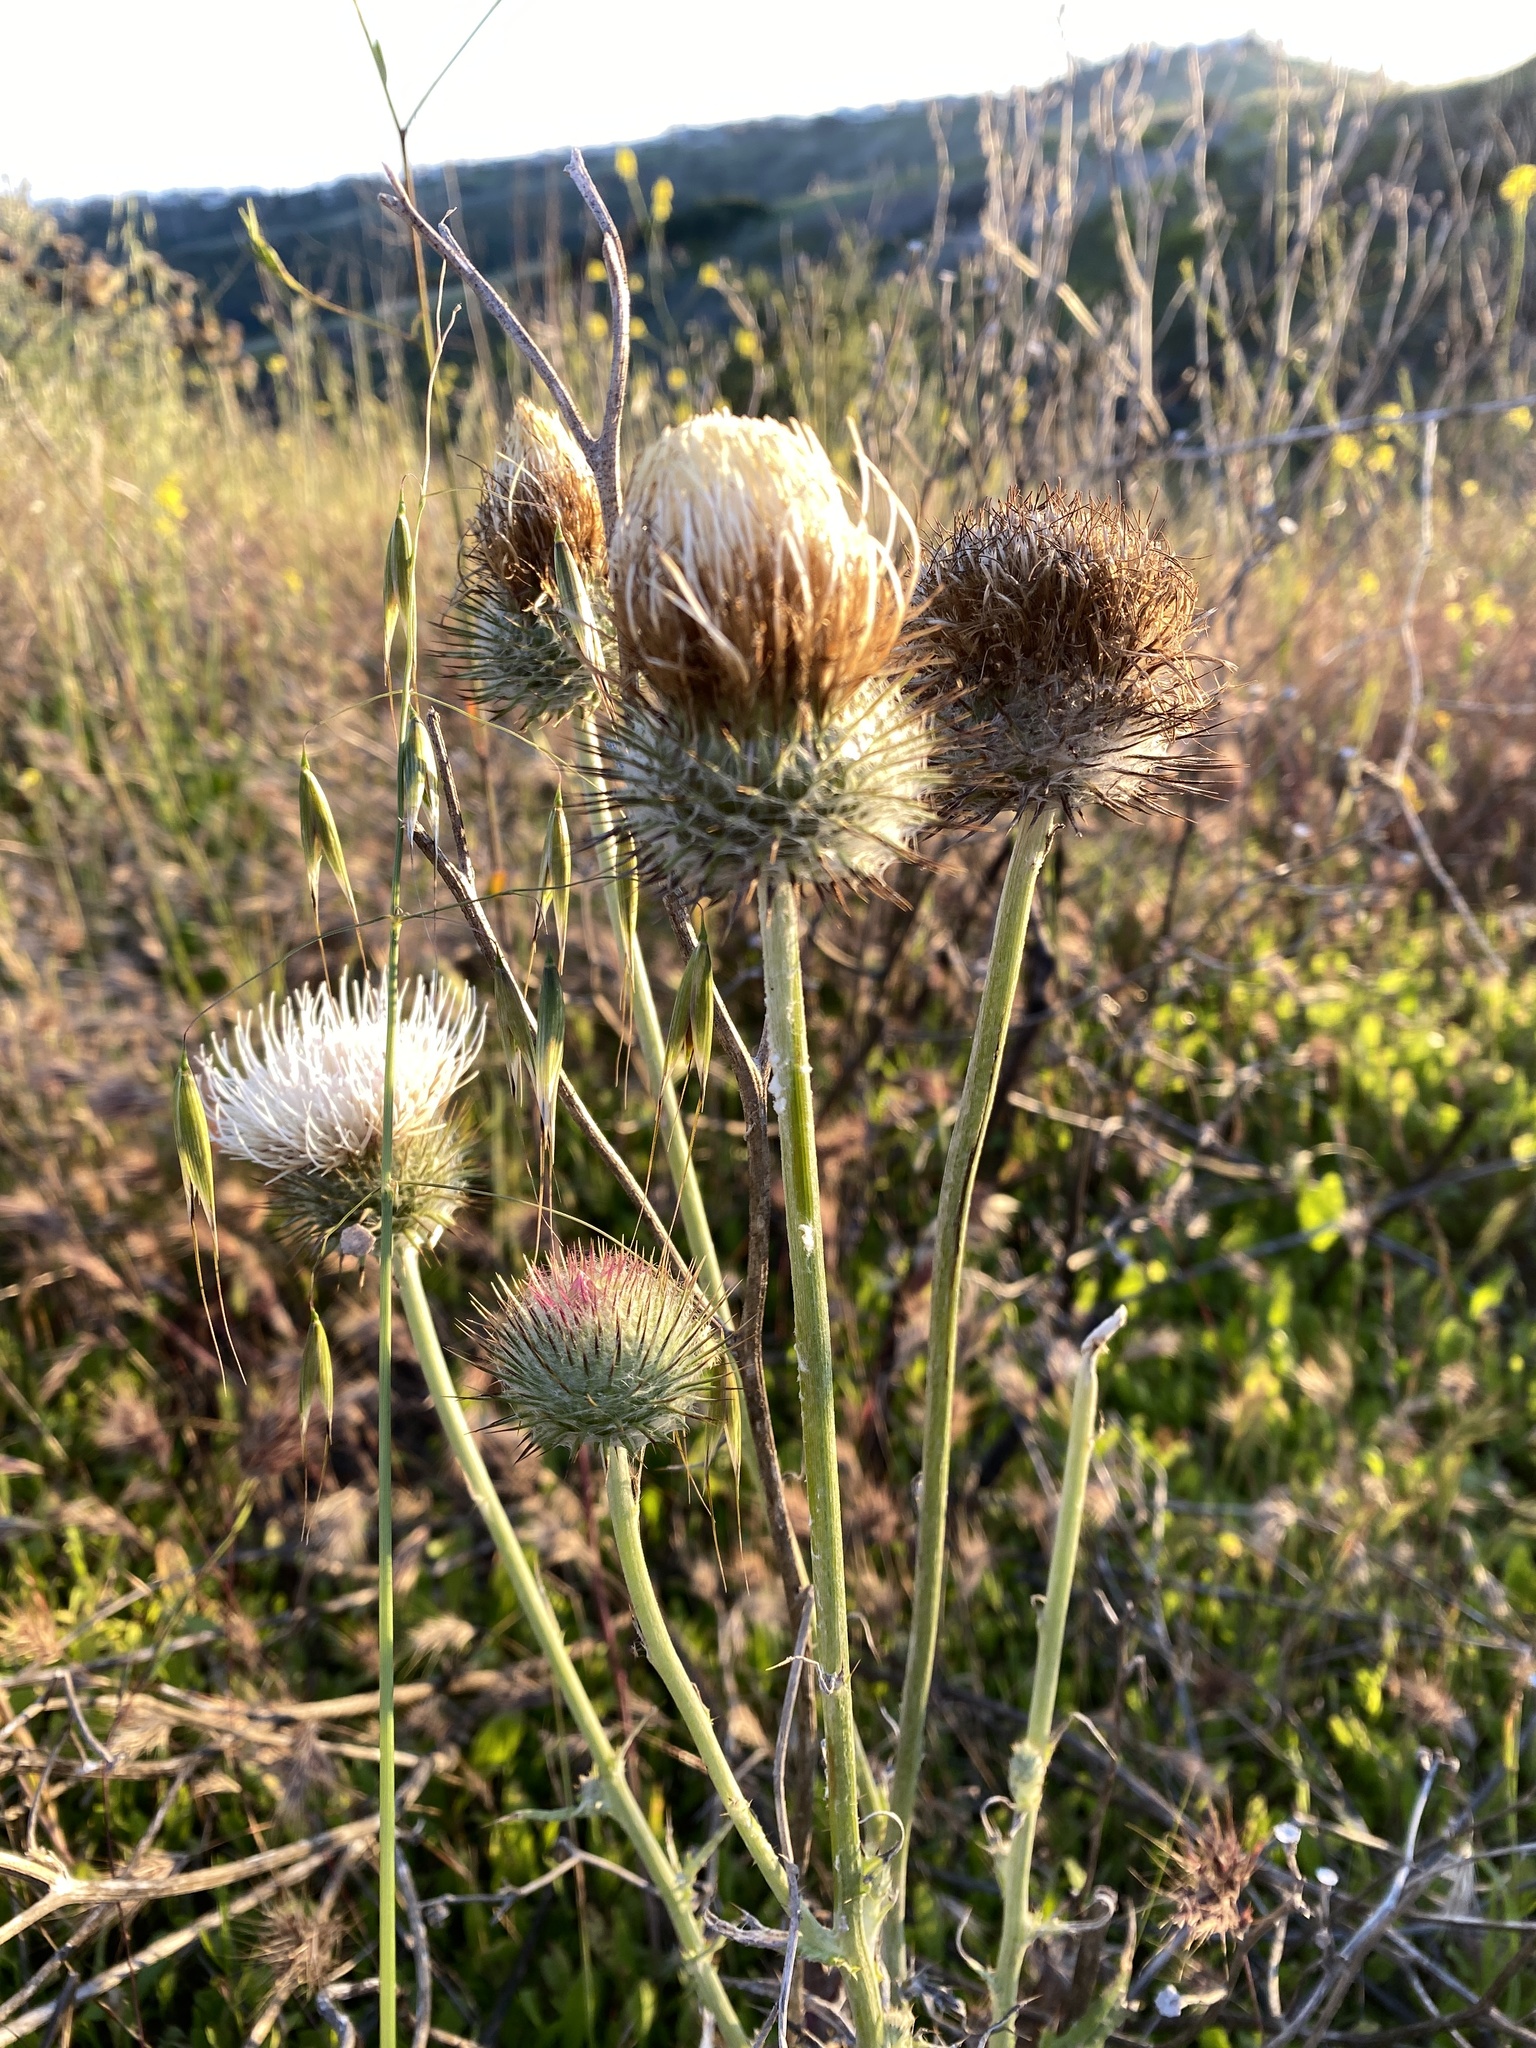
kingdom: Plantae
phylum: Tracheophyta
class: Magnoliopsida
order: Asterales
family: Asteraceae
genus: Cirsium
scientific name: Cirsium occidentale
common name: Western thistle
